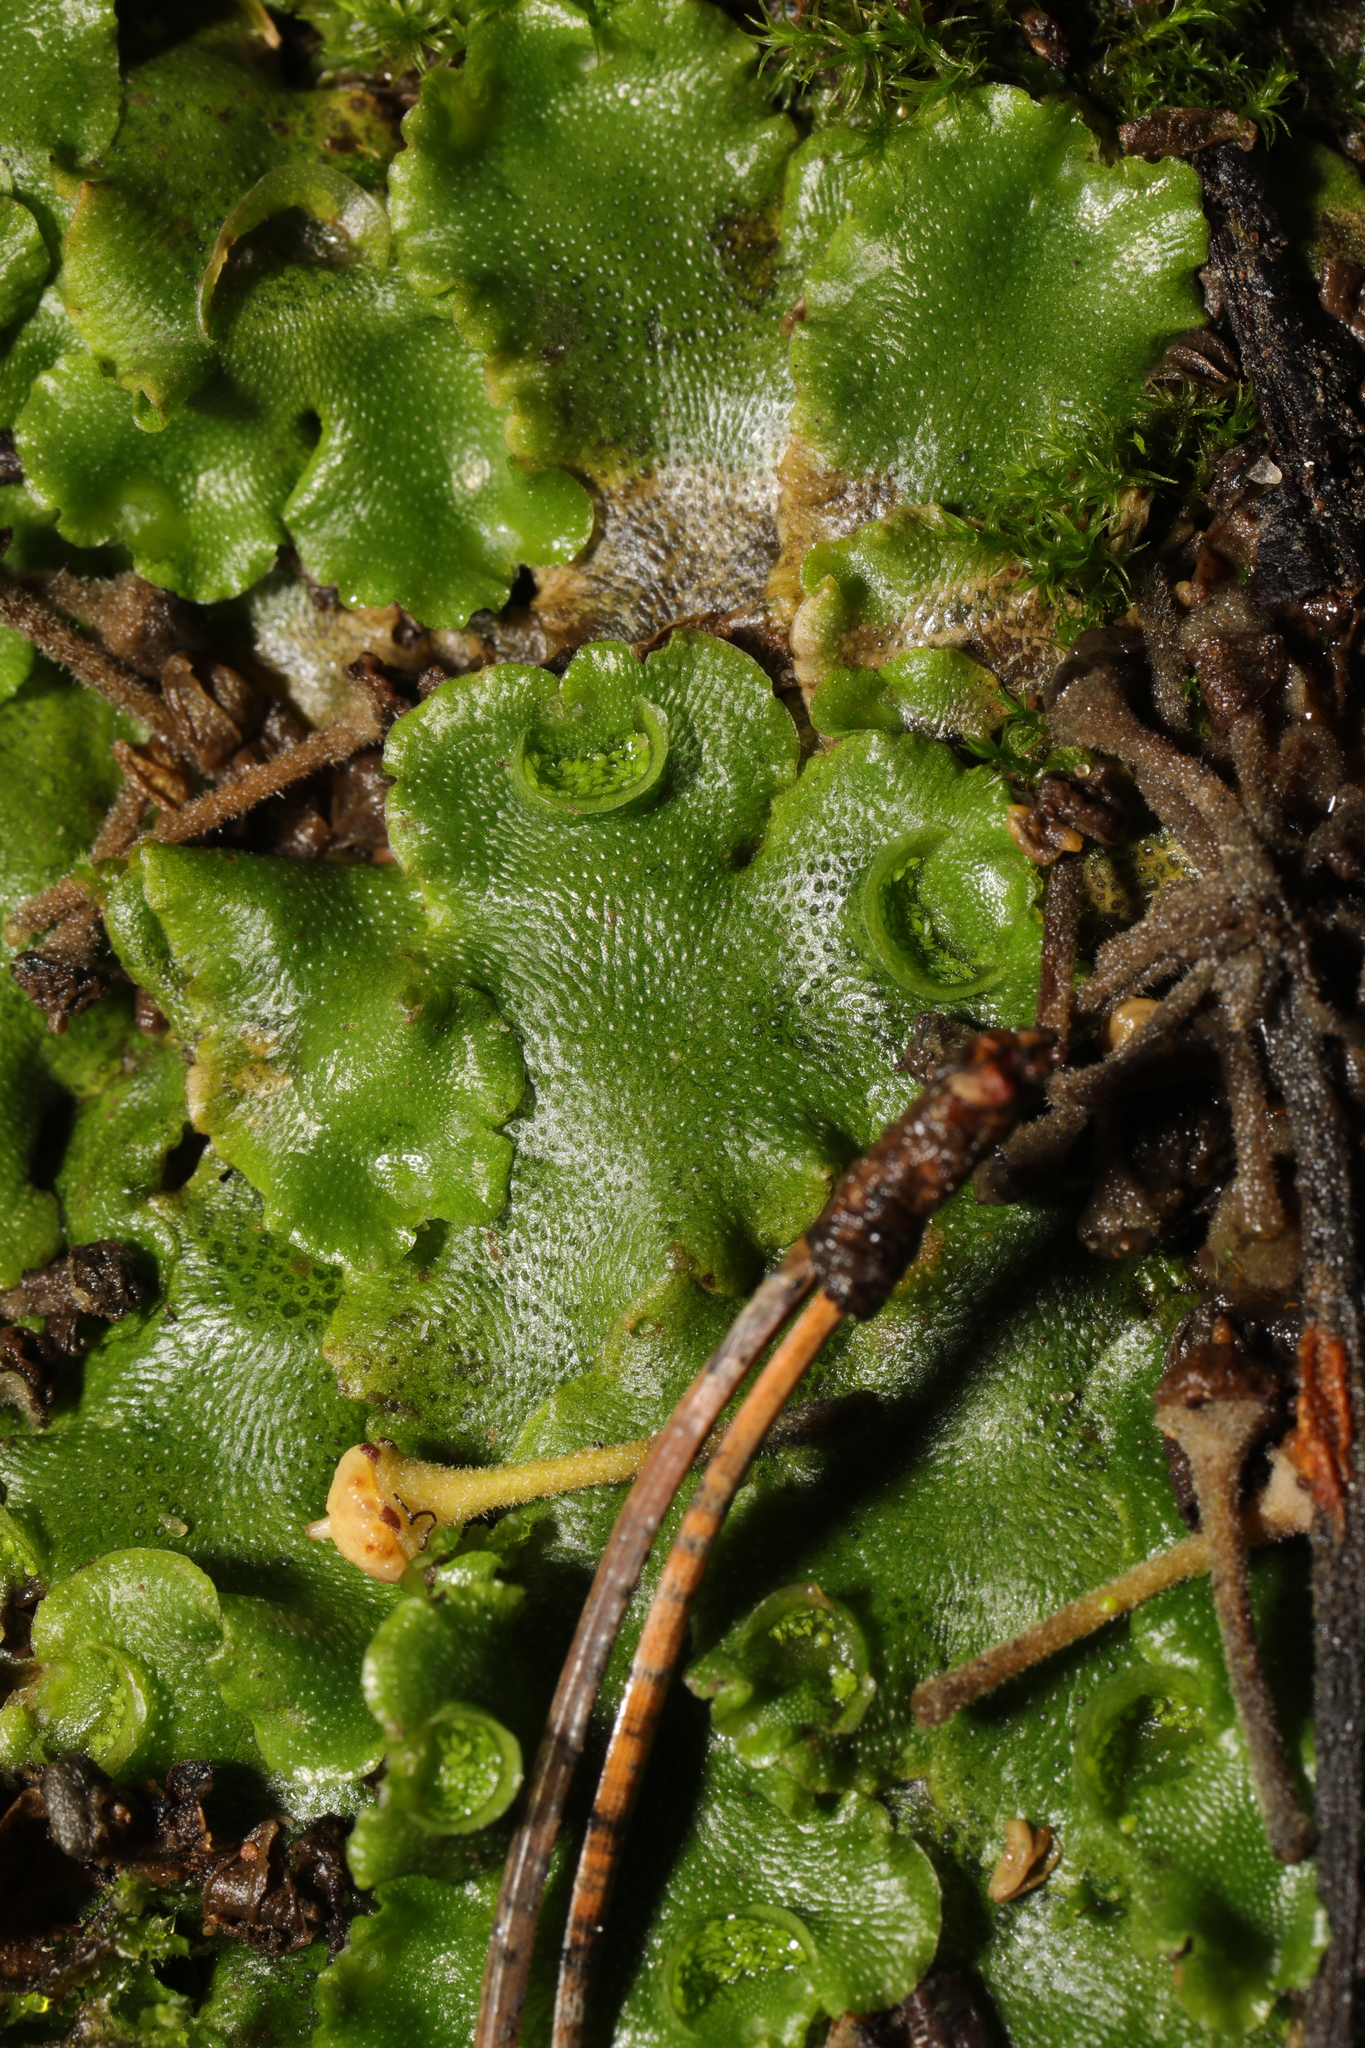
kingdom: Plantae
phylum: Marchantiophyta
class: Marchantiopsida
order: Lunulariales
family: Lunulariaceae
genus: Lunularia
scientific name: Lunularia cruciata
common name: Crescent-cup liverwort
